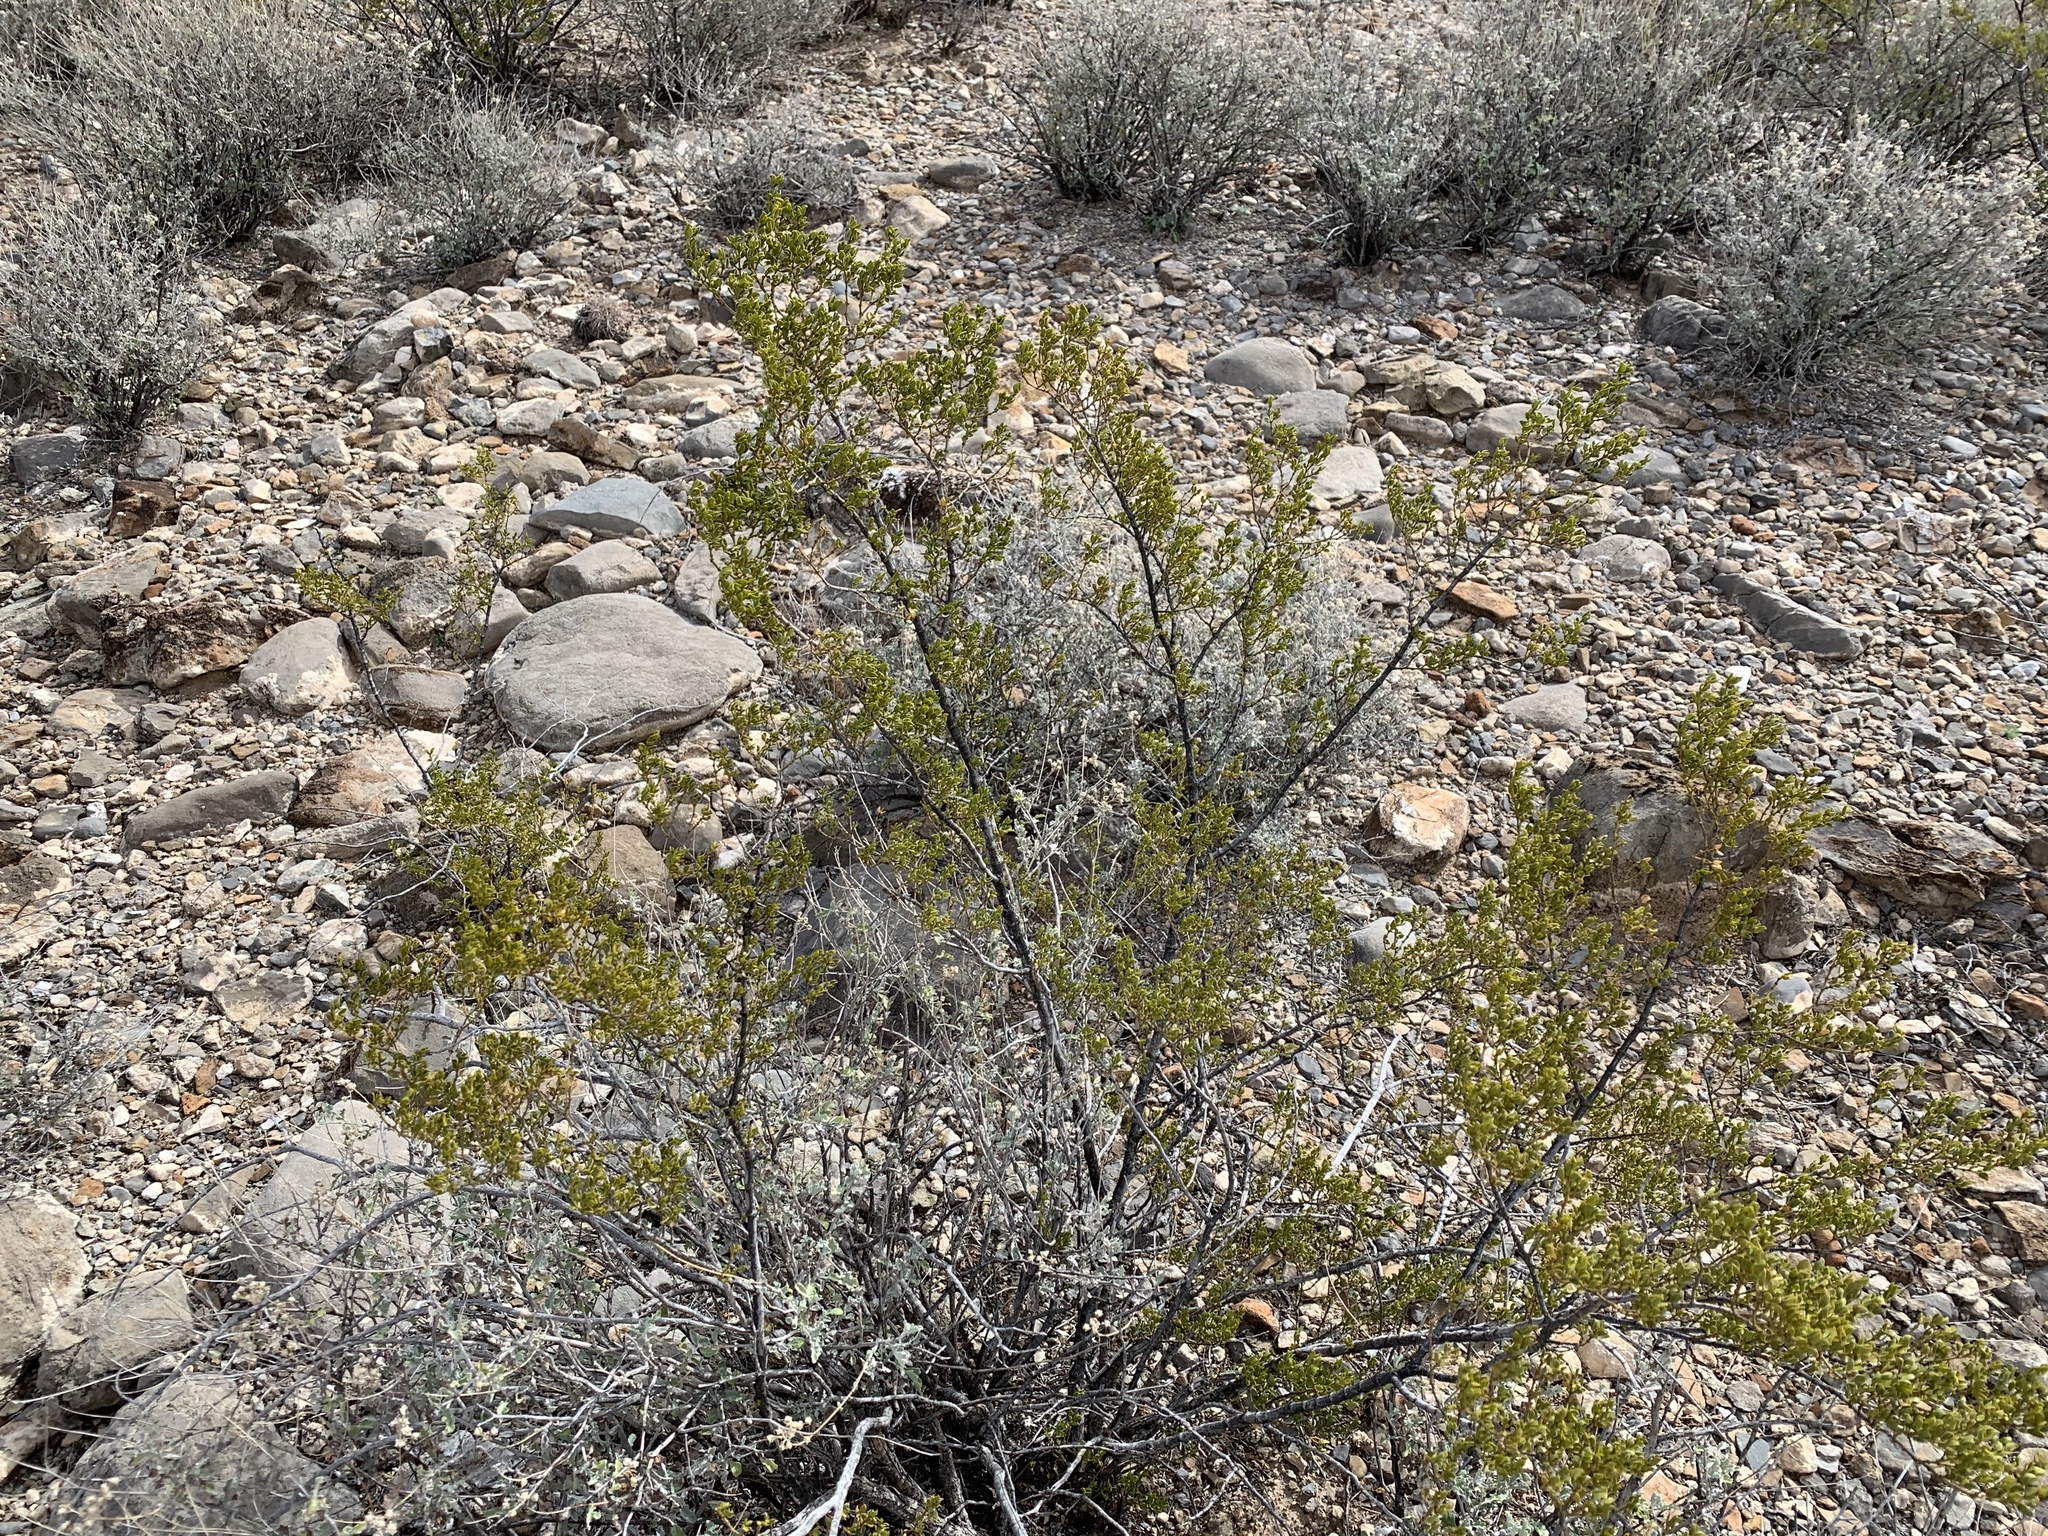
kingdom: Plantae
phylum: Tracheophyta
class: Magnoliopsida
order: Zygophyllales
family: Zygophyllaceae
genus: Larrea
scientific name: Larrea tridentata
